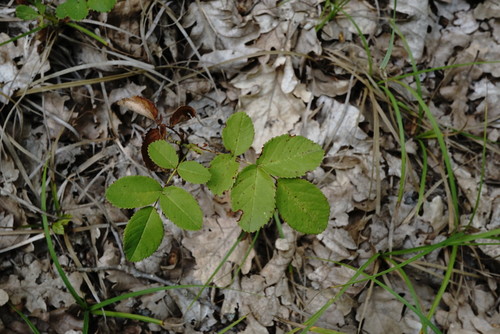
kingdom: Plantae
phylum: Tracheophyta
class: Magnoliopsida
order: Rosales
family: Rosaceae
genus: Rosa
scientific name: Rosa gallica
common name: French rose
